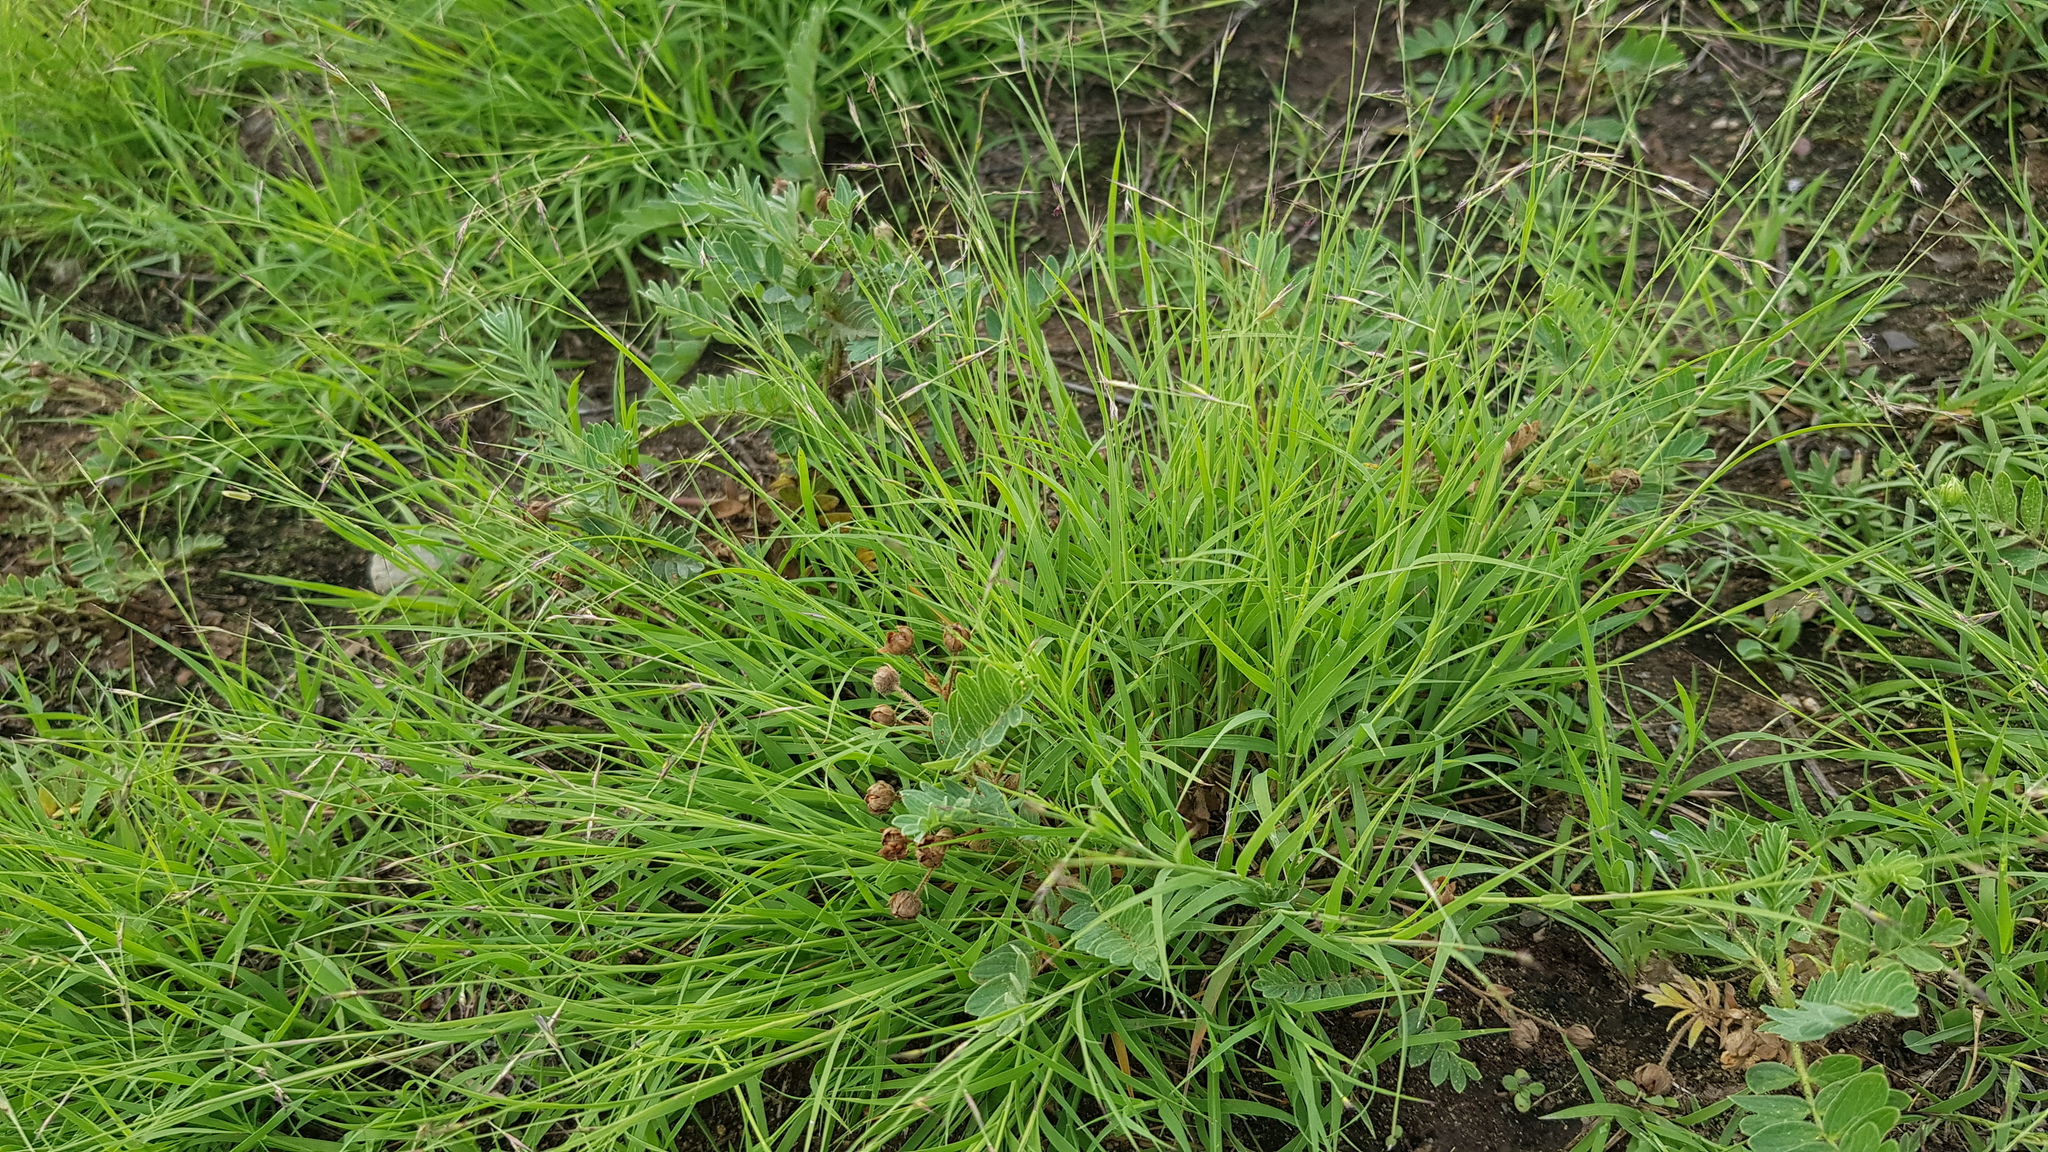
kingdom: Plantae
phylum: Tracheophyta
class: Liliopsida
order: Poales
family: Poaceae
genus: Cleistogenes
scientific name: Cleistogenes squarrosa
